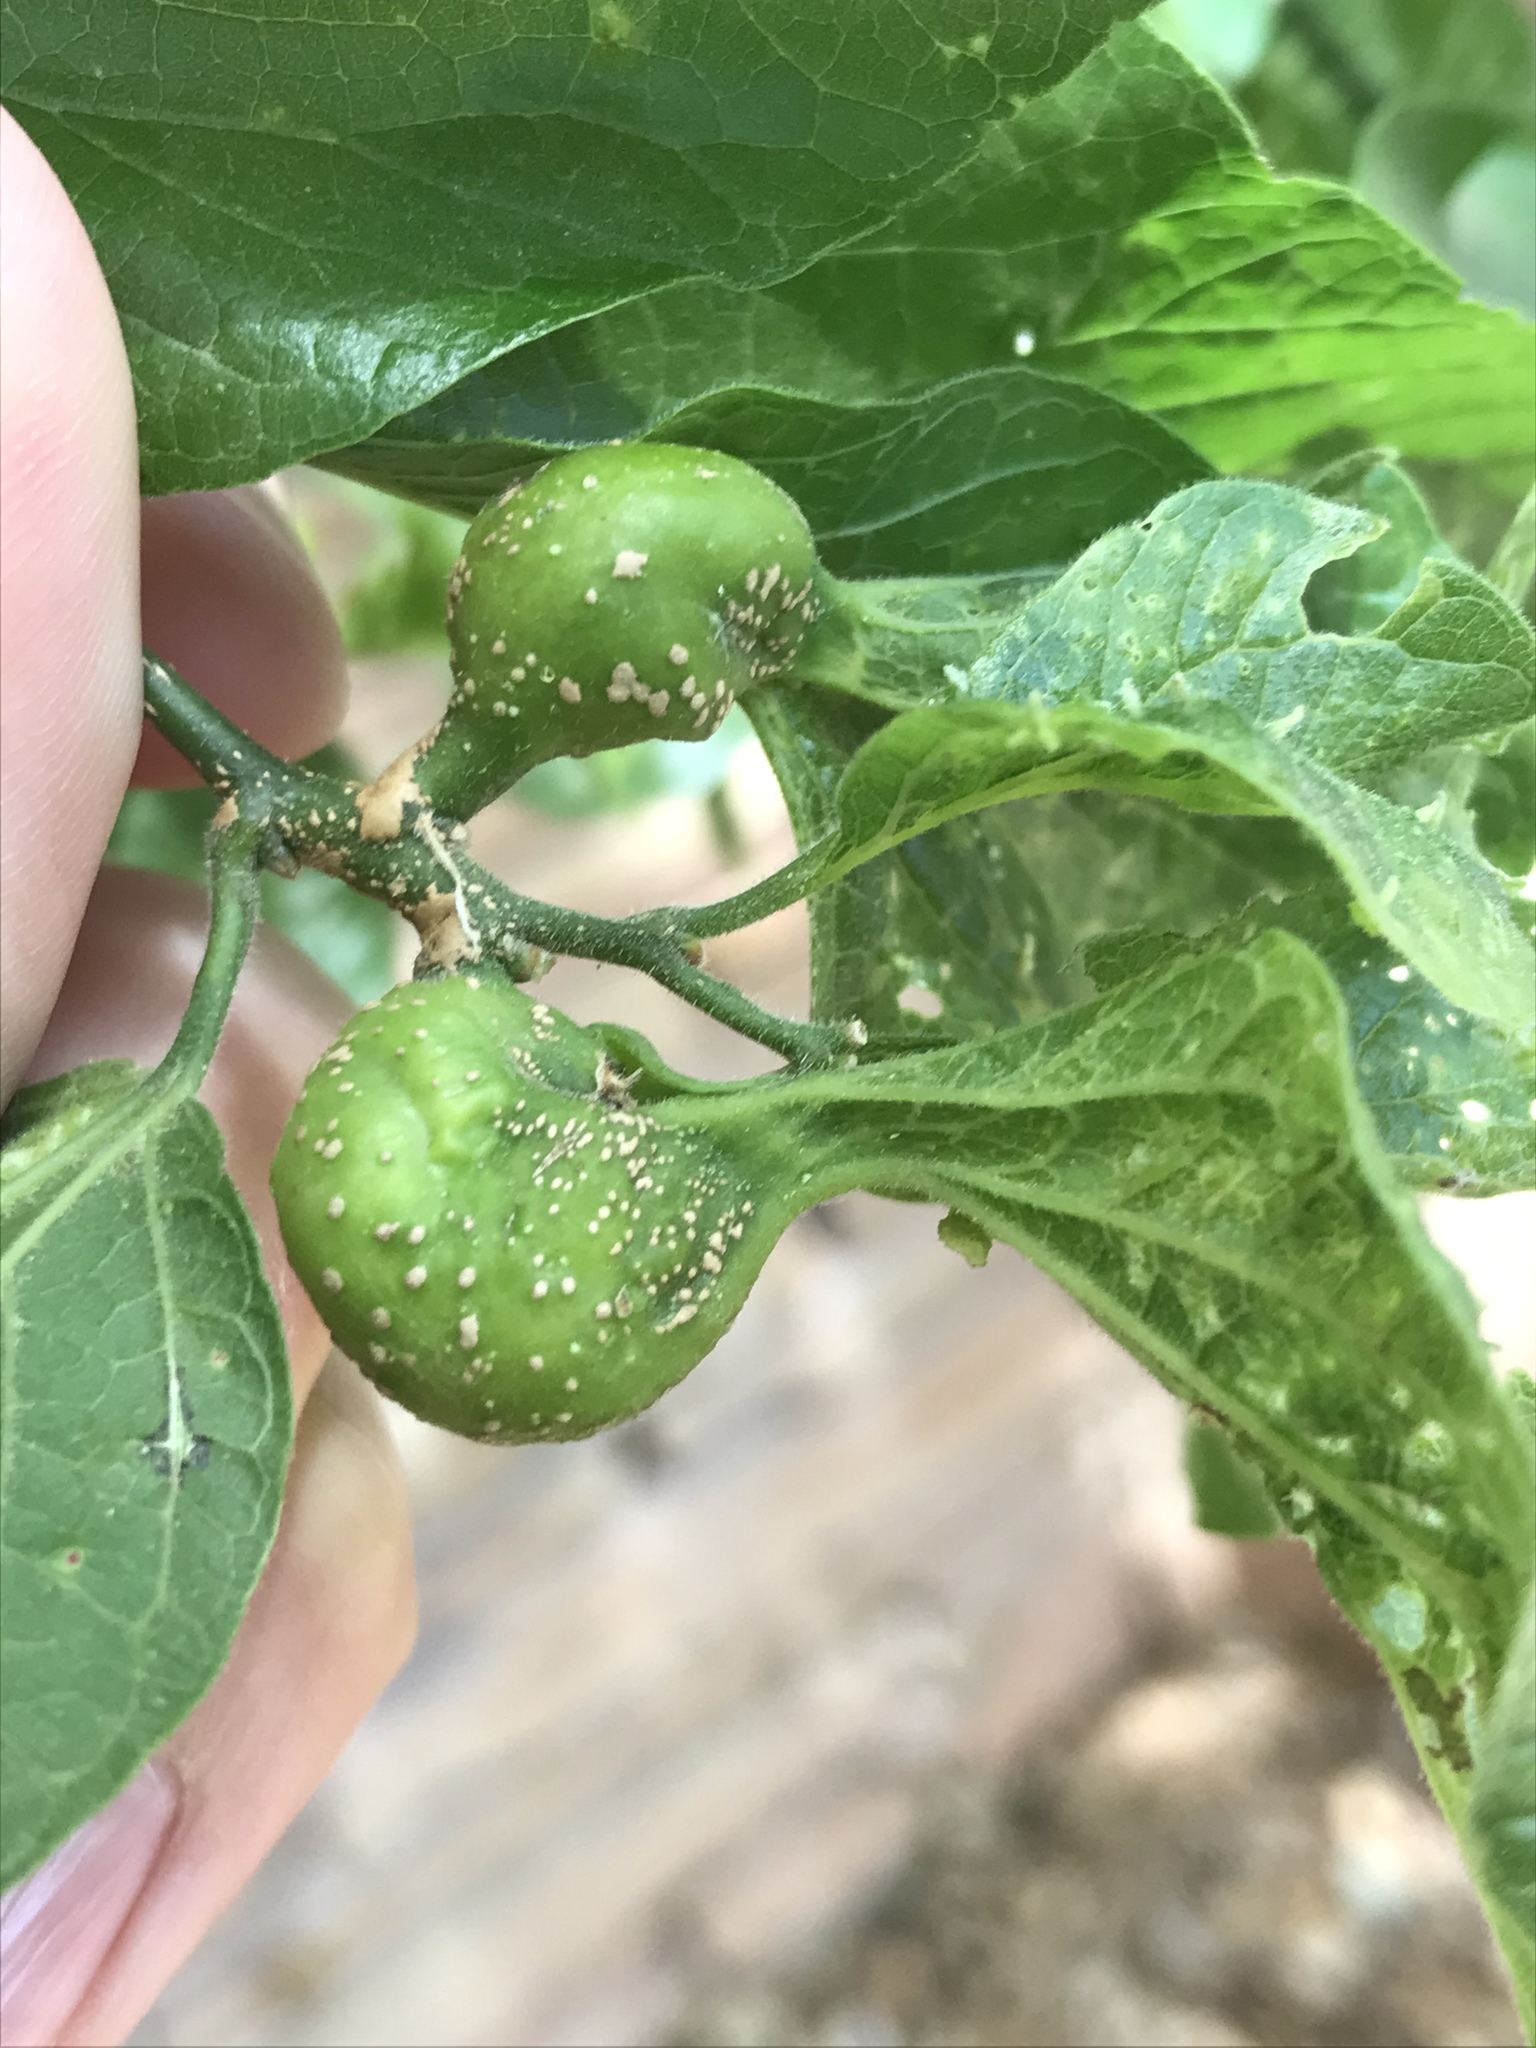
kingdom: Animalia
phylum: Arthropoda
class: Insecta
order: Hemiptera
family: Aphalaridae
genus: Pachypsylla
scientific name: Pachypsylla venusta
